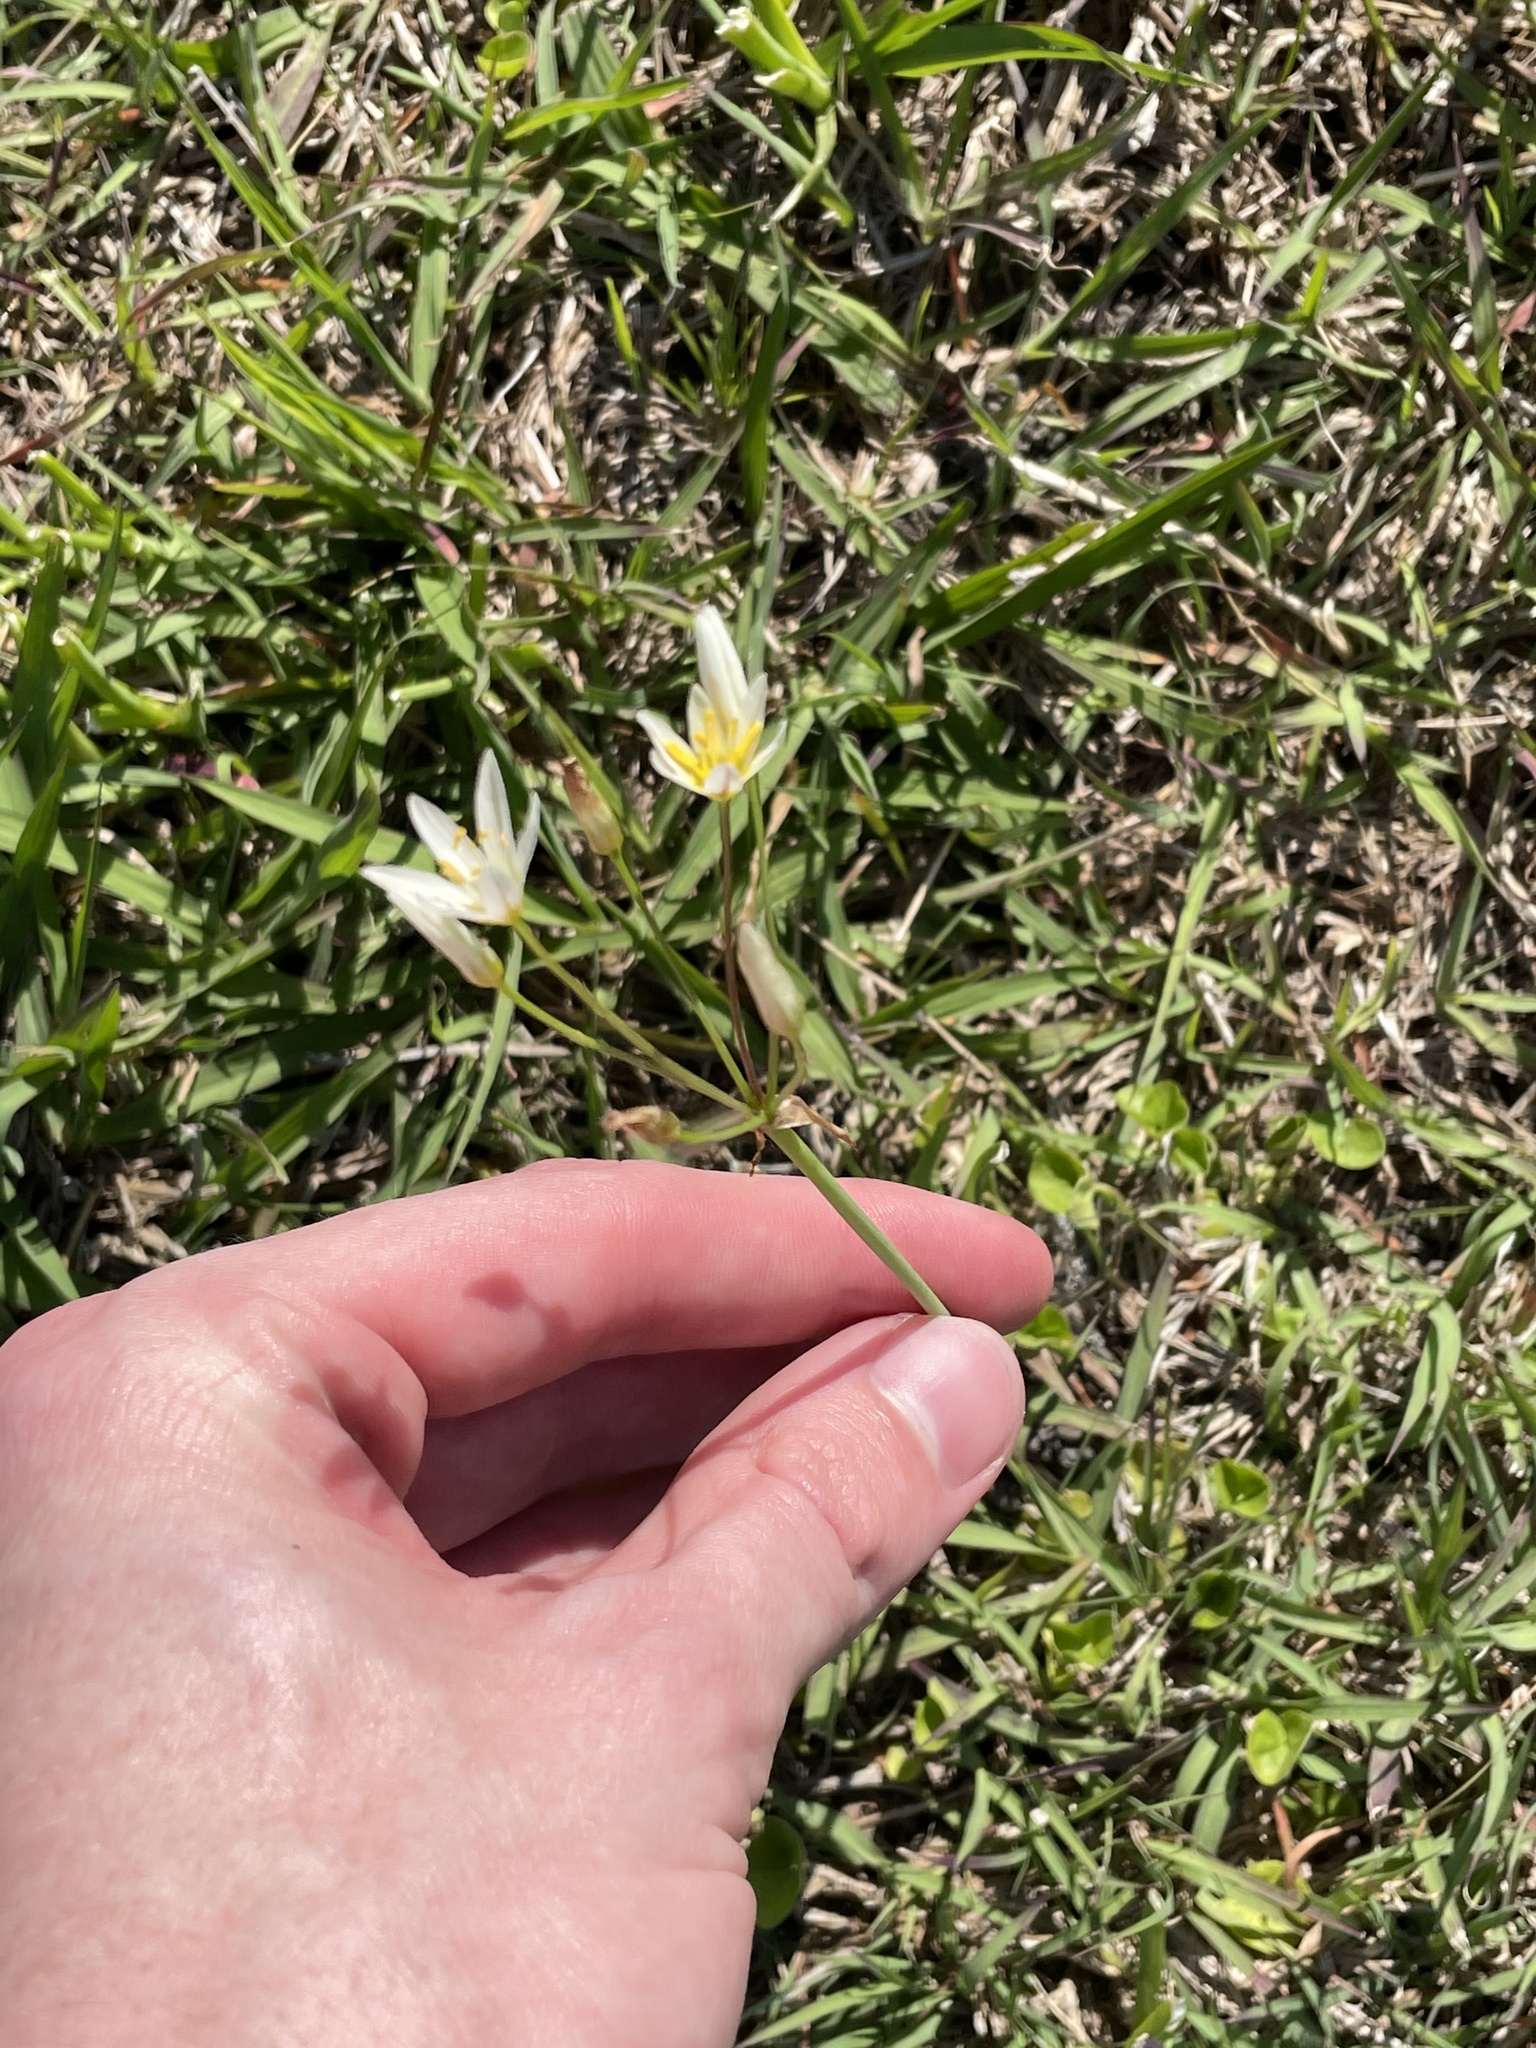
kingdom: Plantae
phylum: Tracheophyta
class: Liliopsida
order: Asparagales
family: Amaryllidaceae
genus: Nothoscordum
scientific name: Nothoscordum bivalve
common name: Crow-poison
